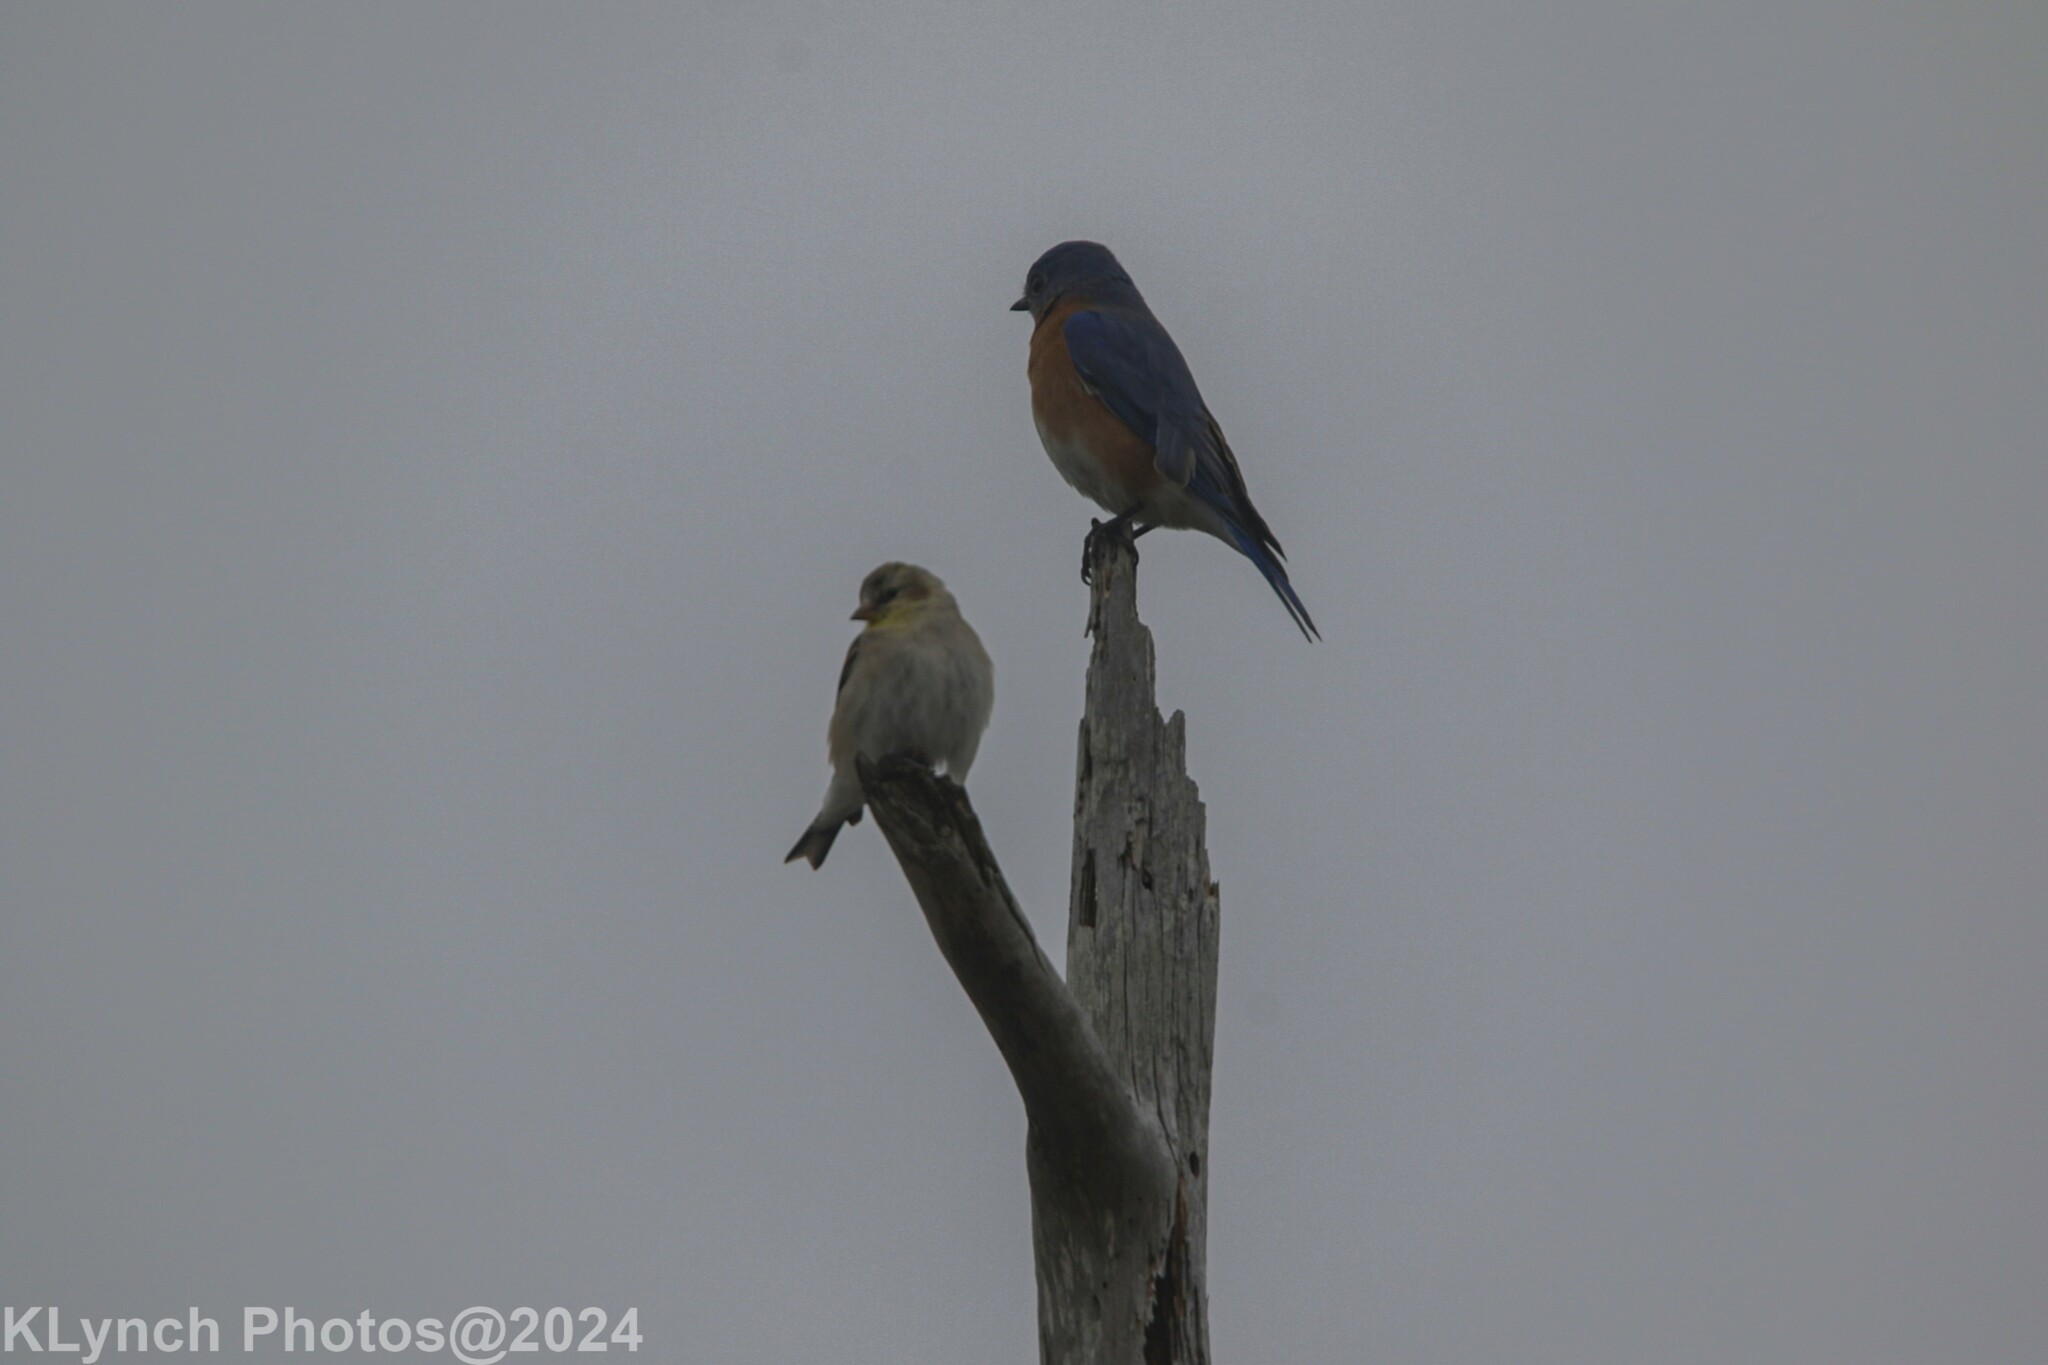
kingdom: Animalia
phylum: Chordata
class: Aves
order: Passeriformes
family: Turdidae
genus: Sialia
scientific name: Sialia sialis
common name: Eastern bluebird
